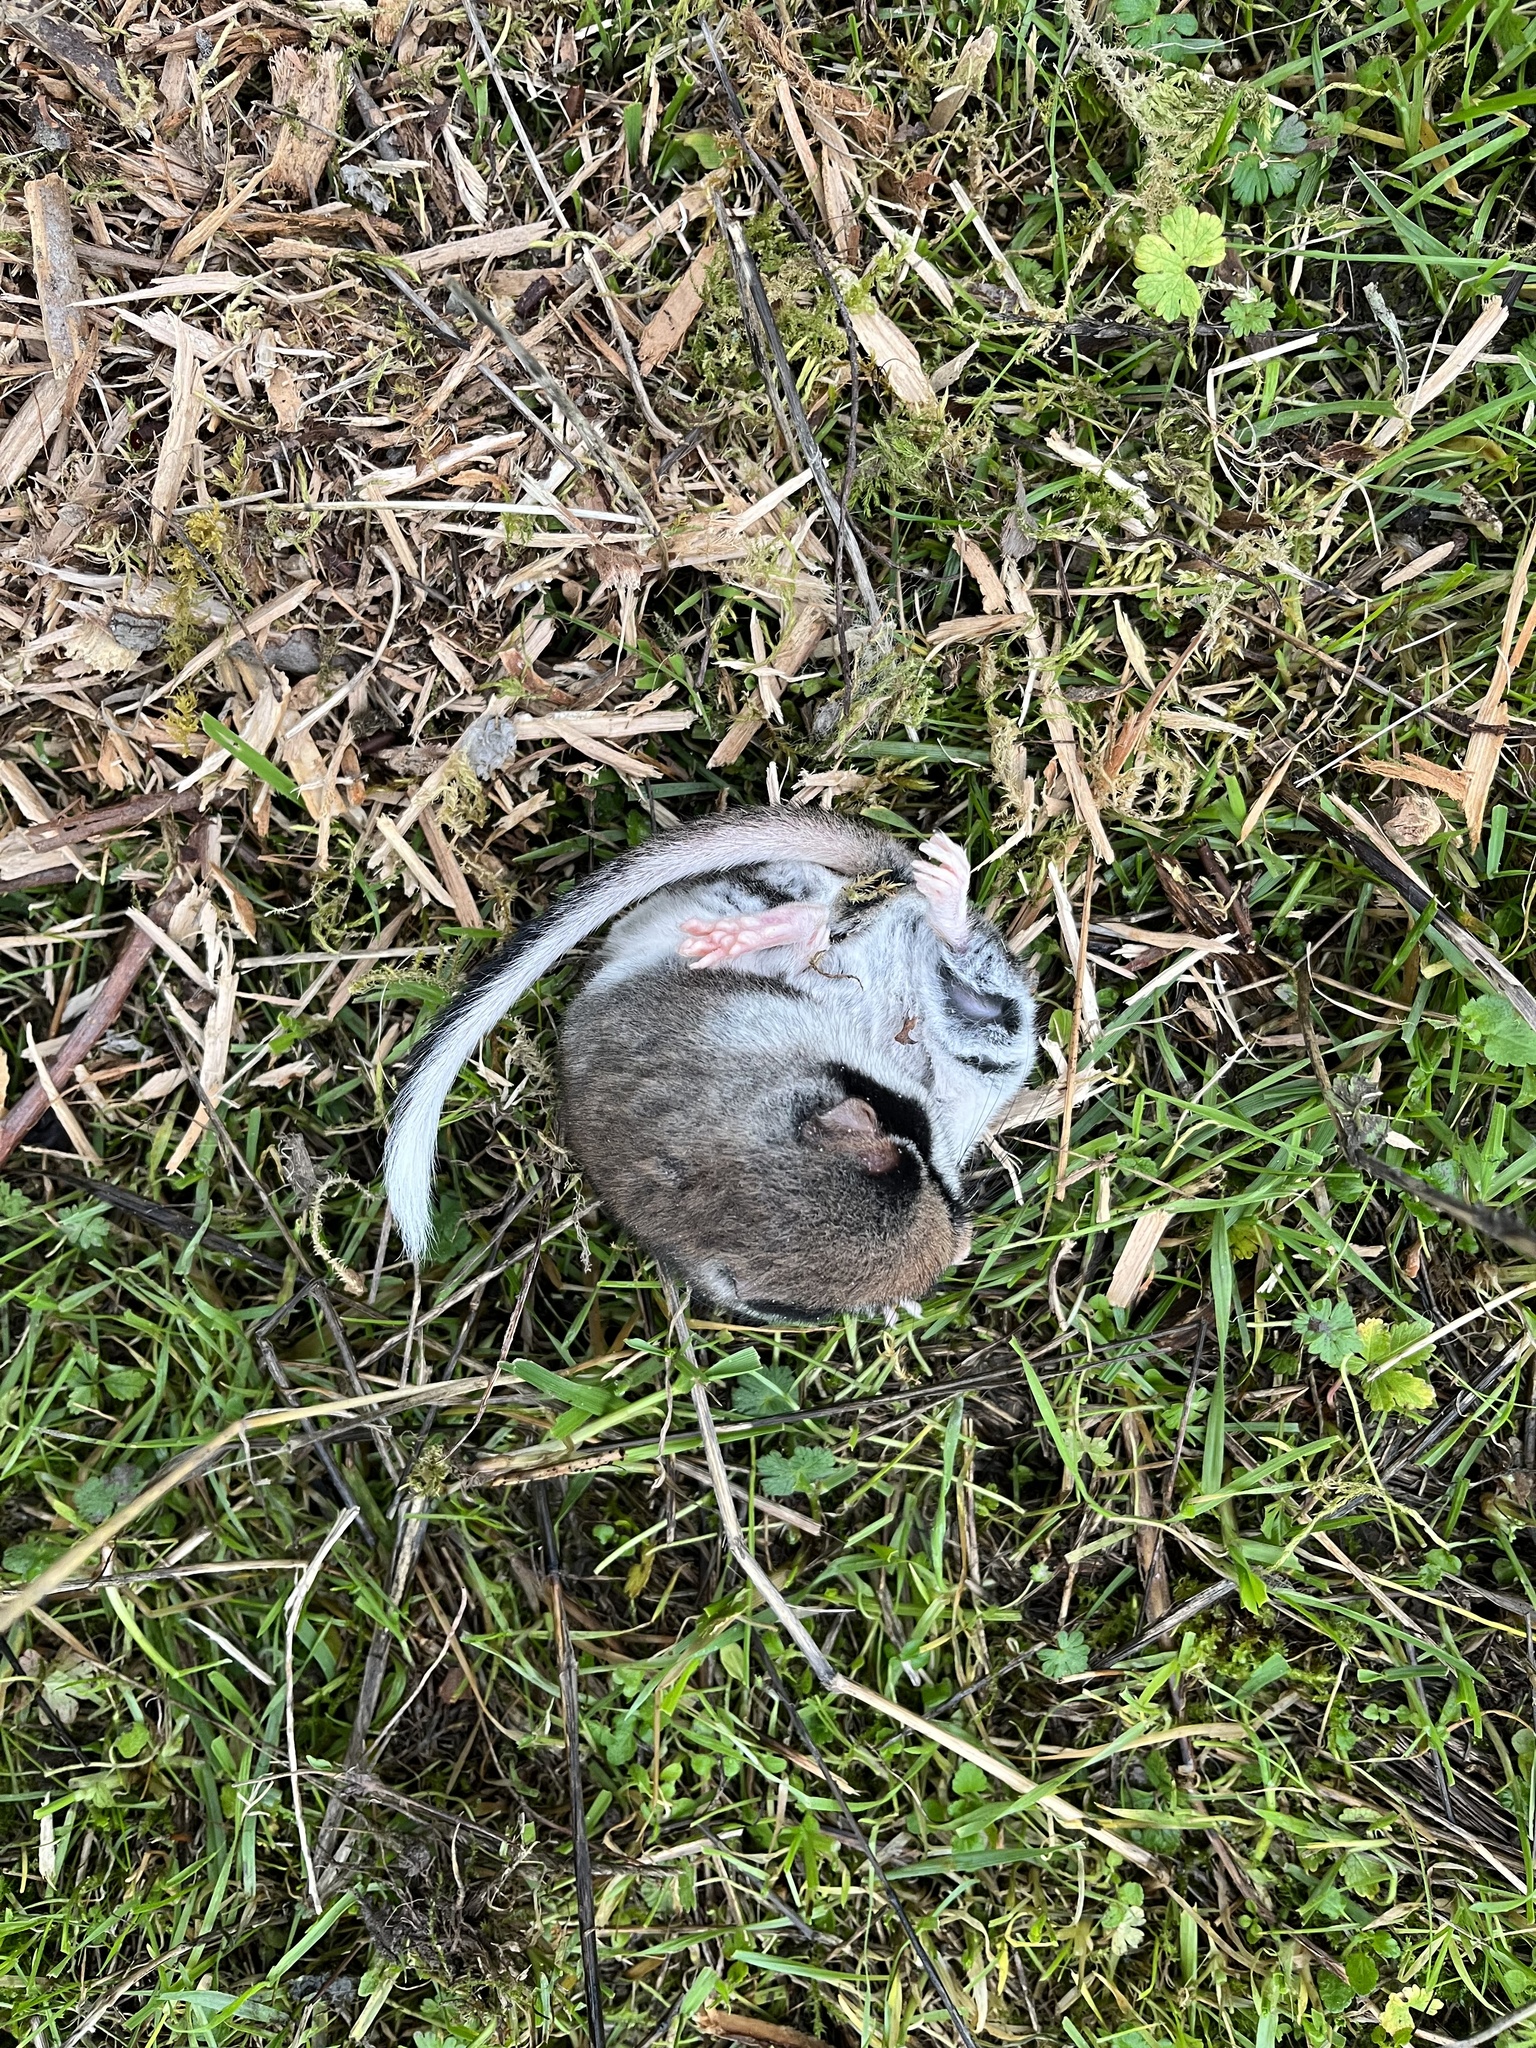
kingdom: Animalia
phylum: Chordata
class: Mammalia
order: Rodentia
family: Gliridae
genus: Eliomys
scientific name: Eliomys quercinus
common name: Garden dormouse
